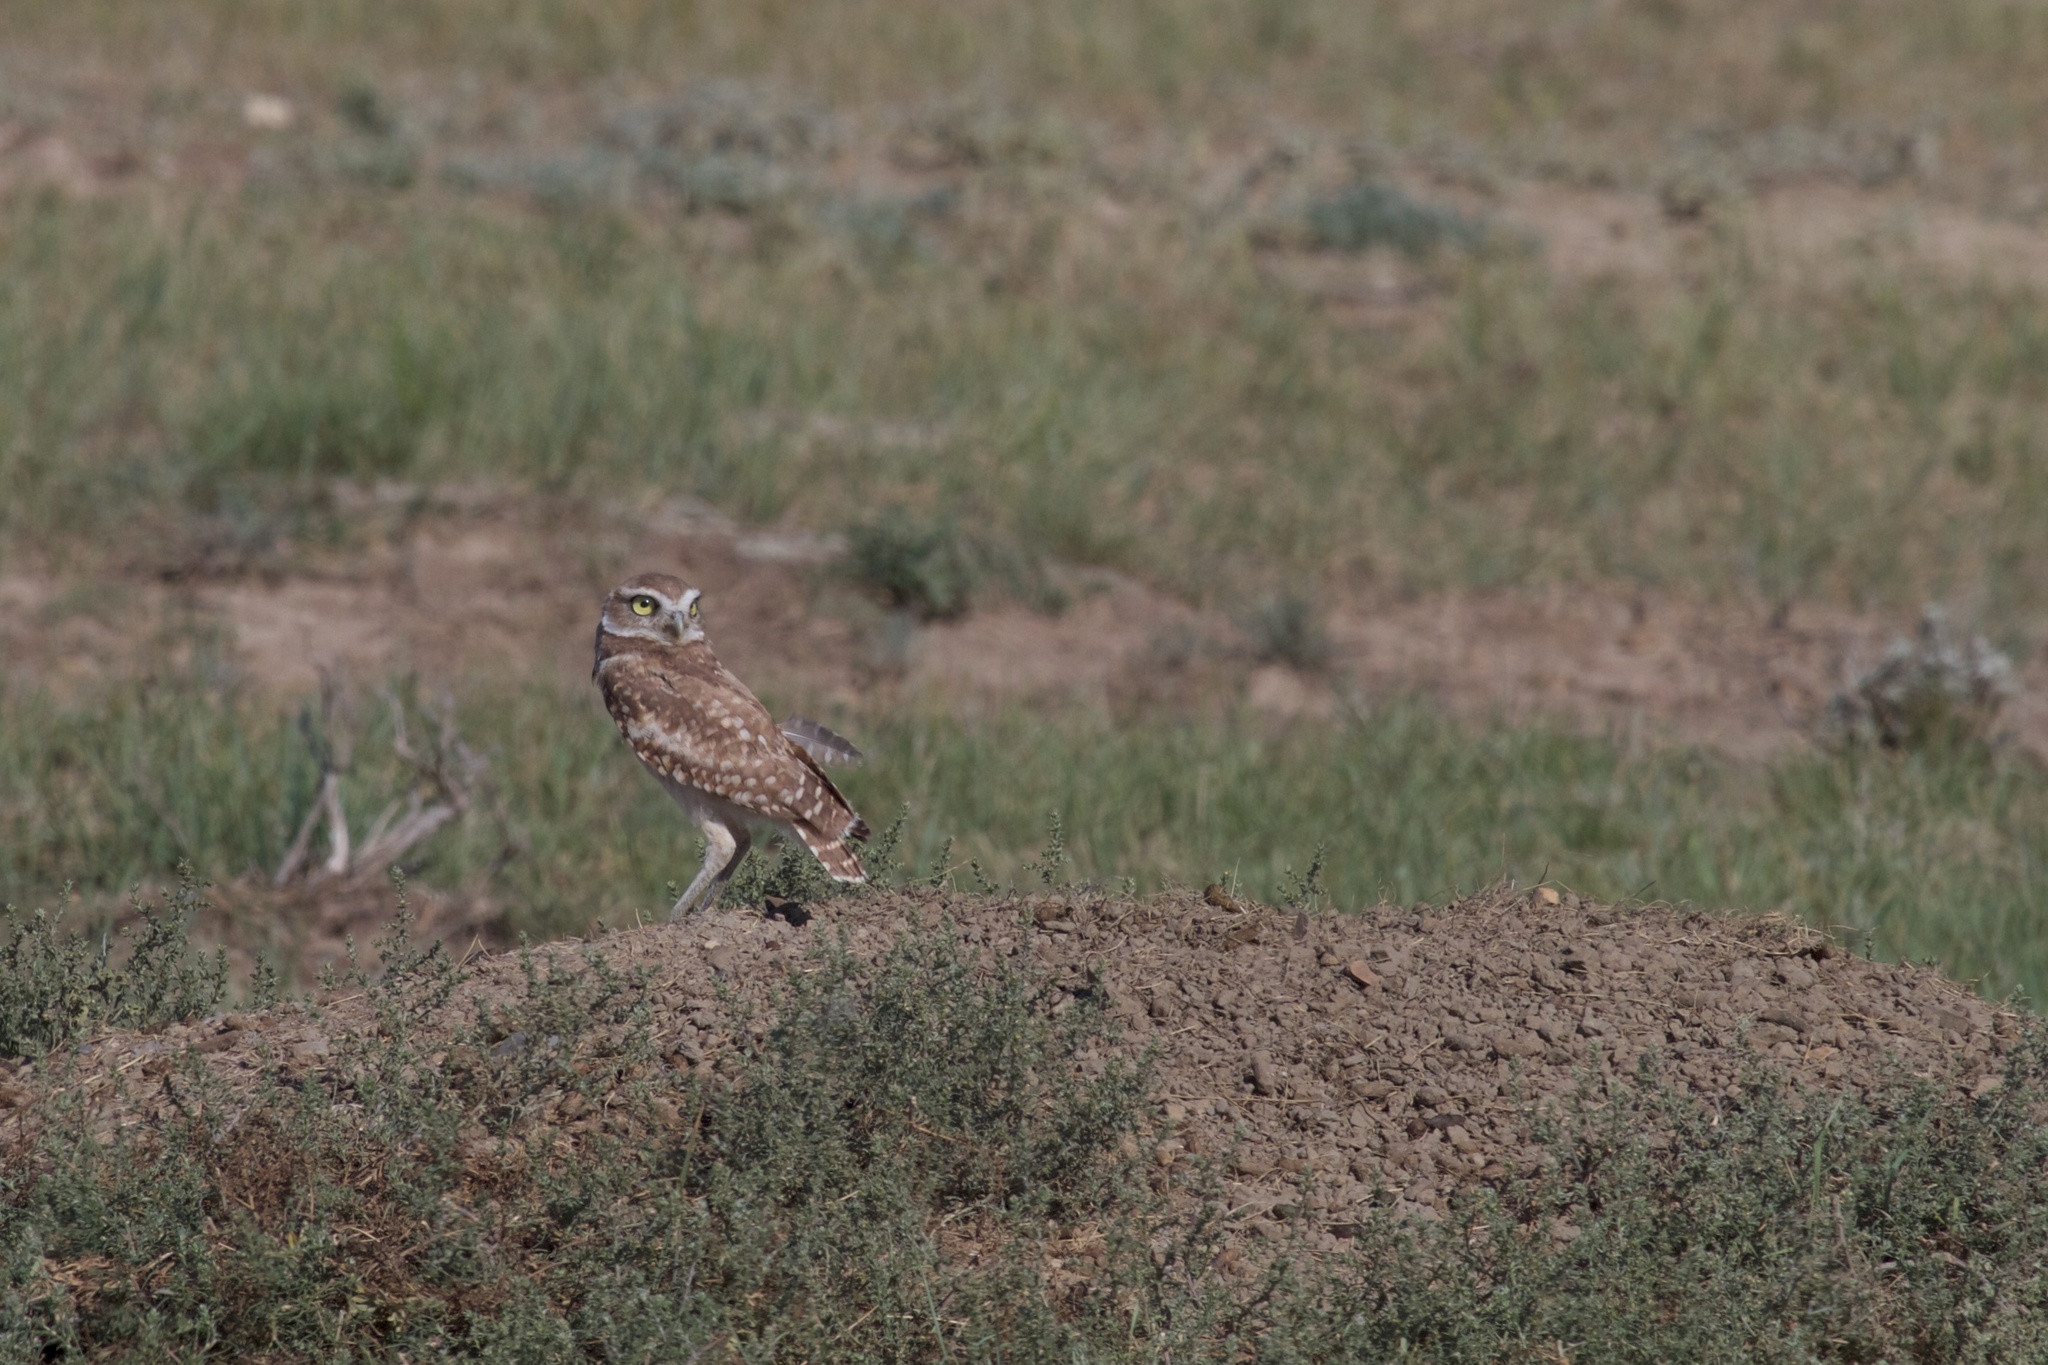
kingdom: Animalia
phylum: Chordata
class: Aves
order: Strigiformes
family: Strigidae
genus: Athene
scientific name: Athene cunicularia
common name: Burrowing owl
